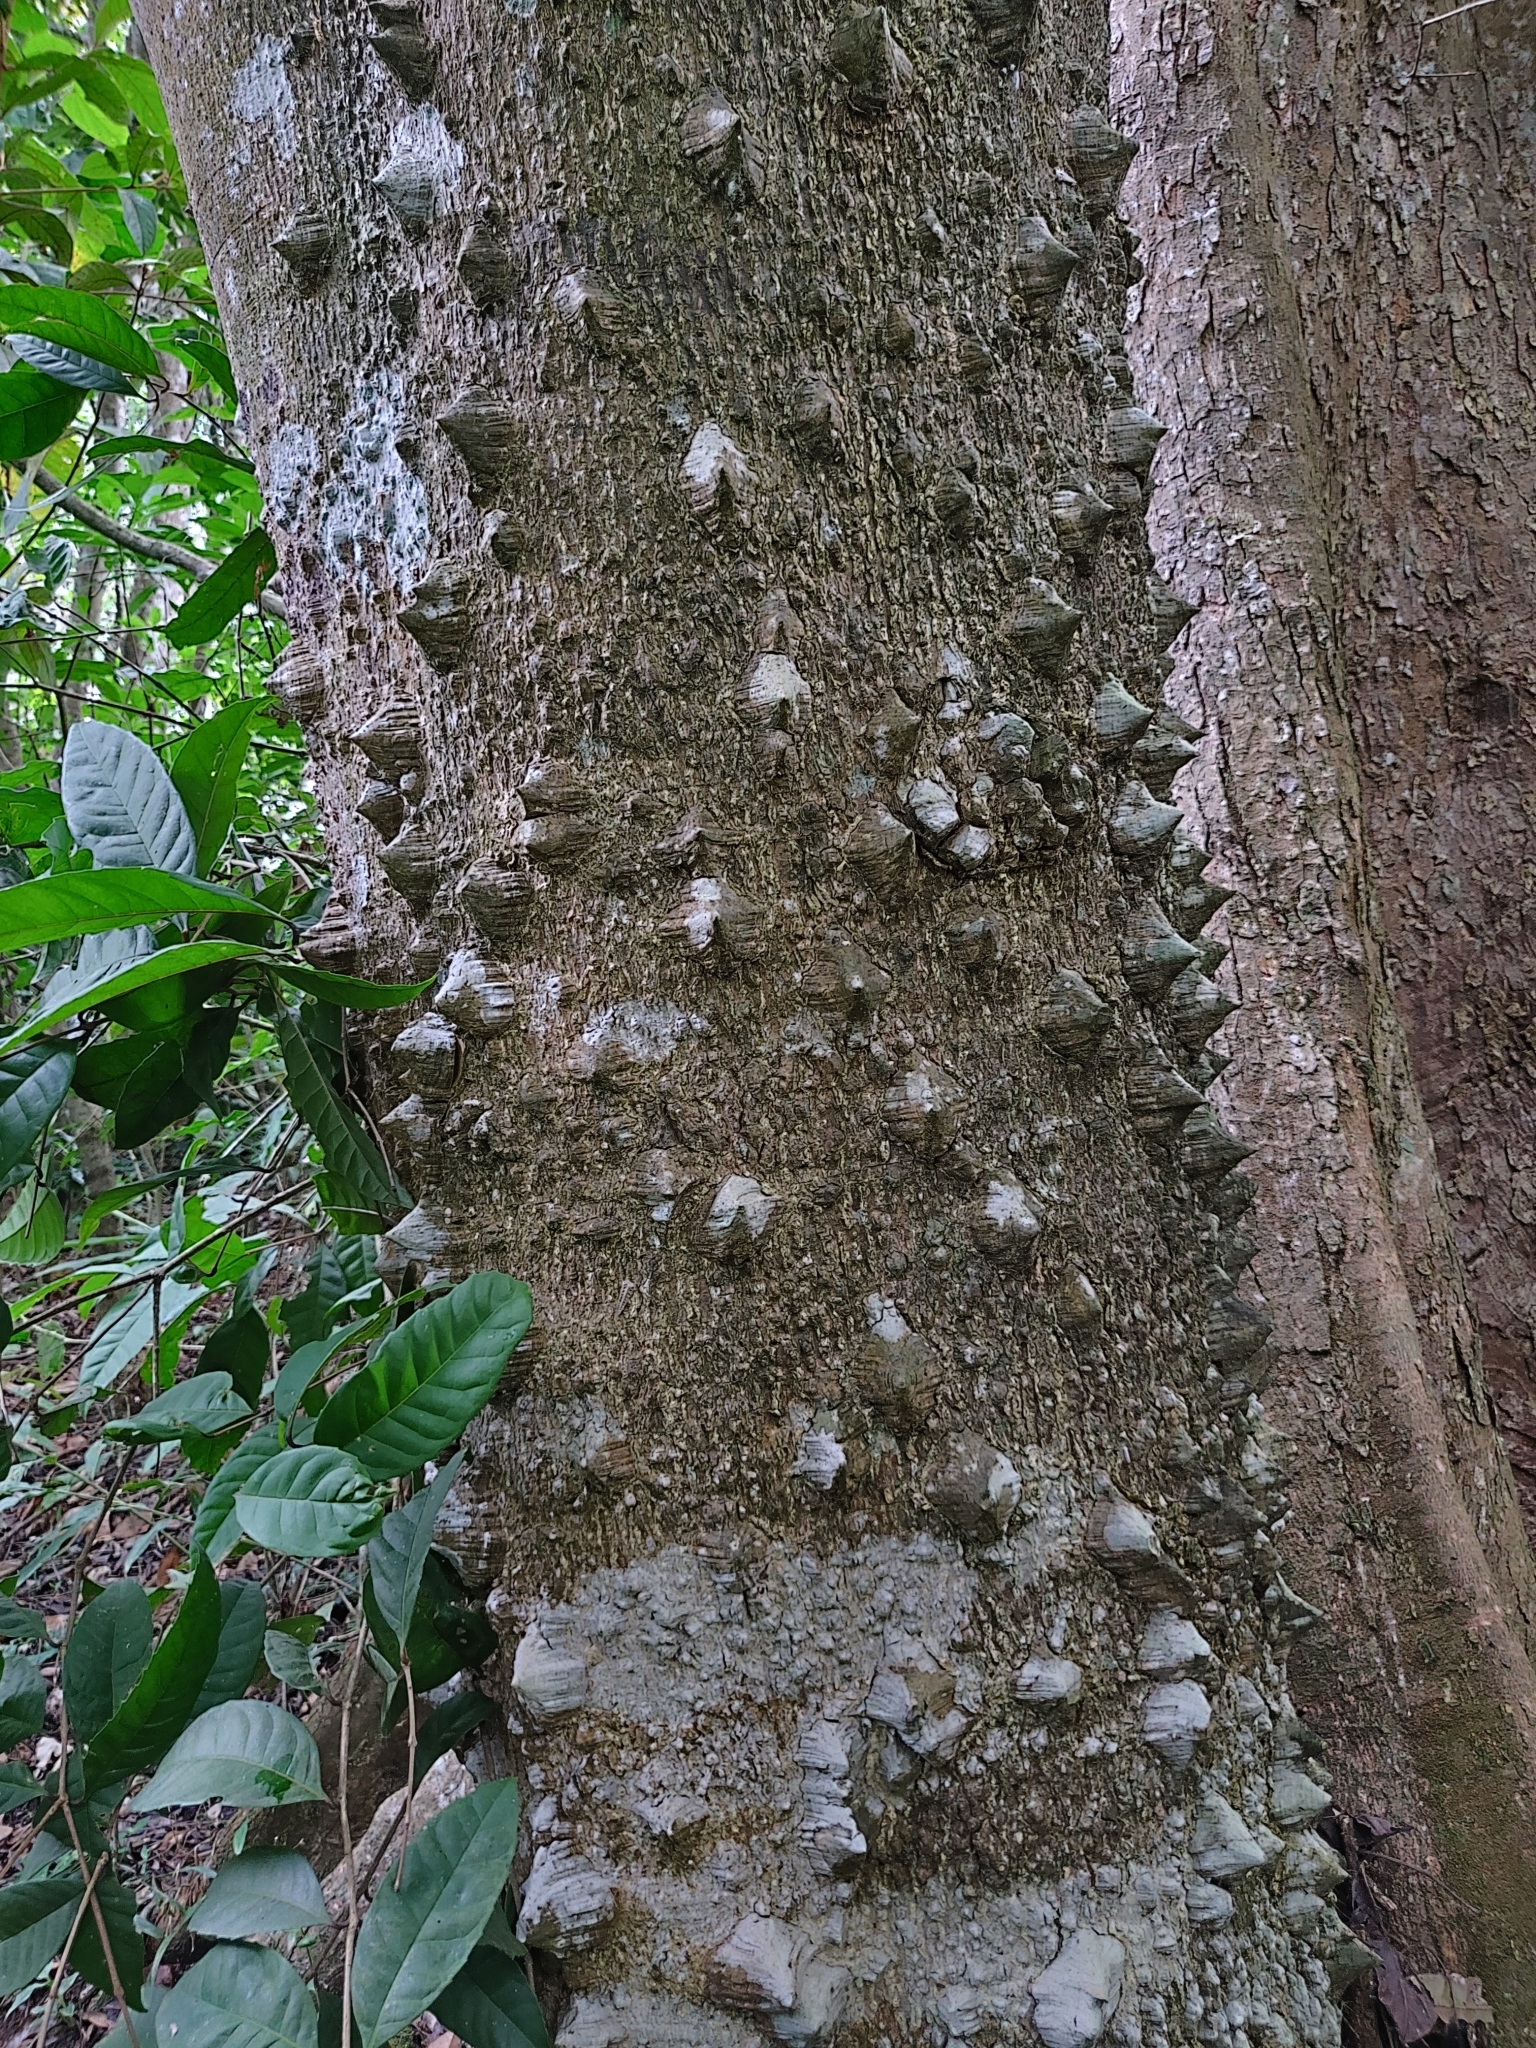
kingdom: Plantae
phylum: Tracheophyta
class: Magnoliopsida
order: Sapindales
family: Rutaceae
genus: Zanthoxylum
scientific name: Zanthoxylum rhetsa
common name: Indian ivy-rue
